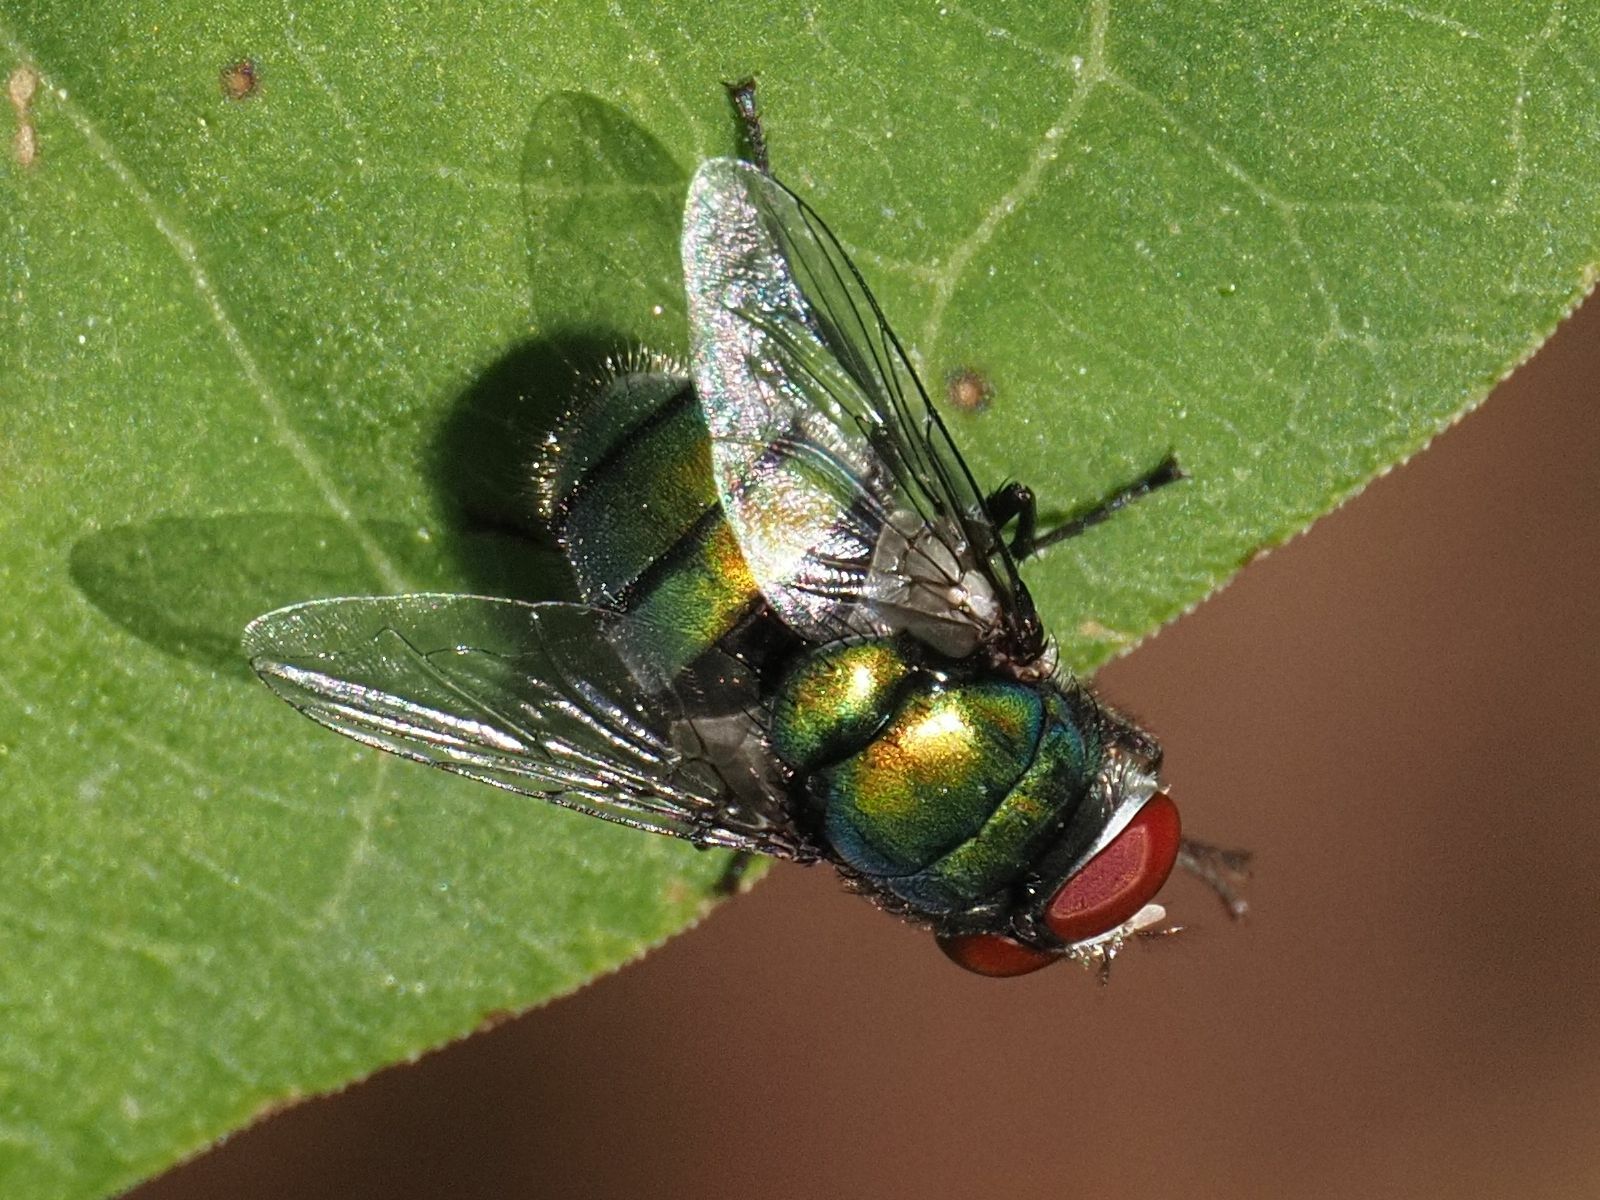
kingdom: Animalia
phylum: Arthropoda
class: Insecta
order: Diptera
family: Calliphoridae
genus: Chrysomya
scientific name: Chrysomya albiceps
